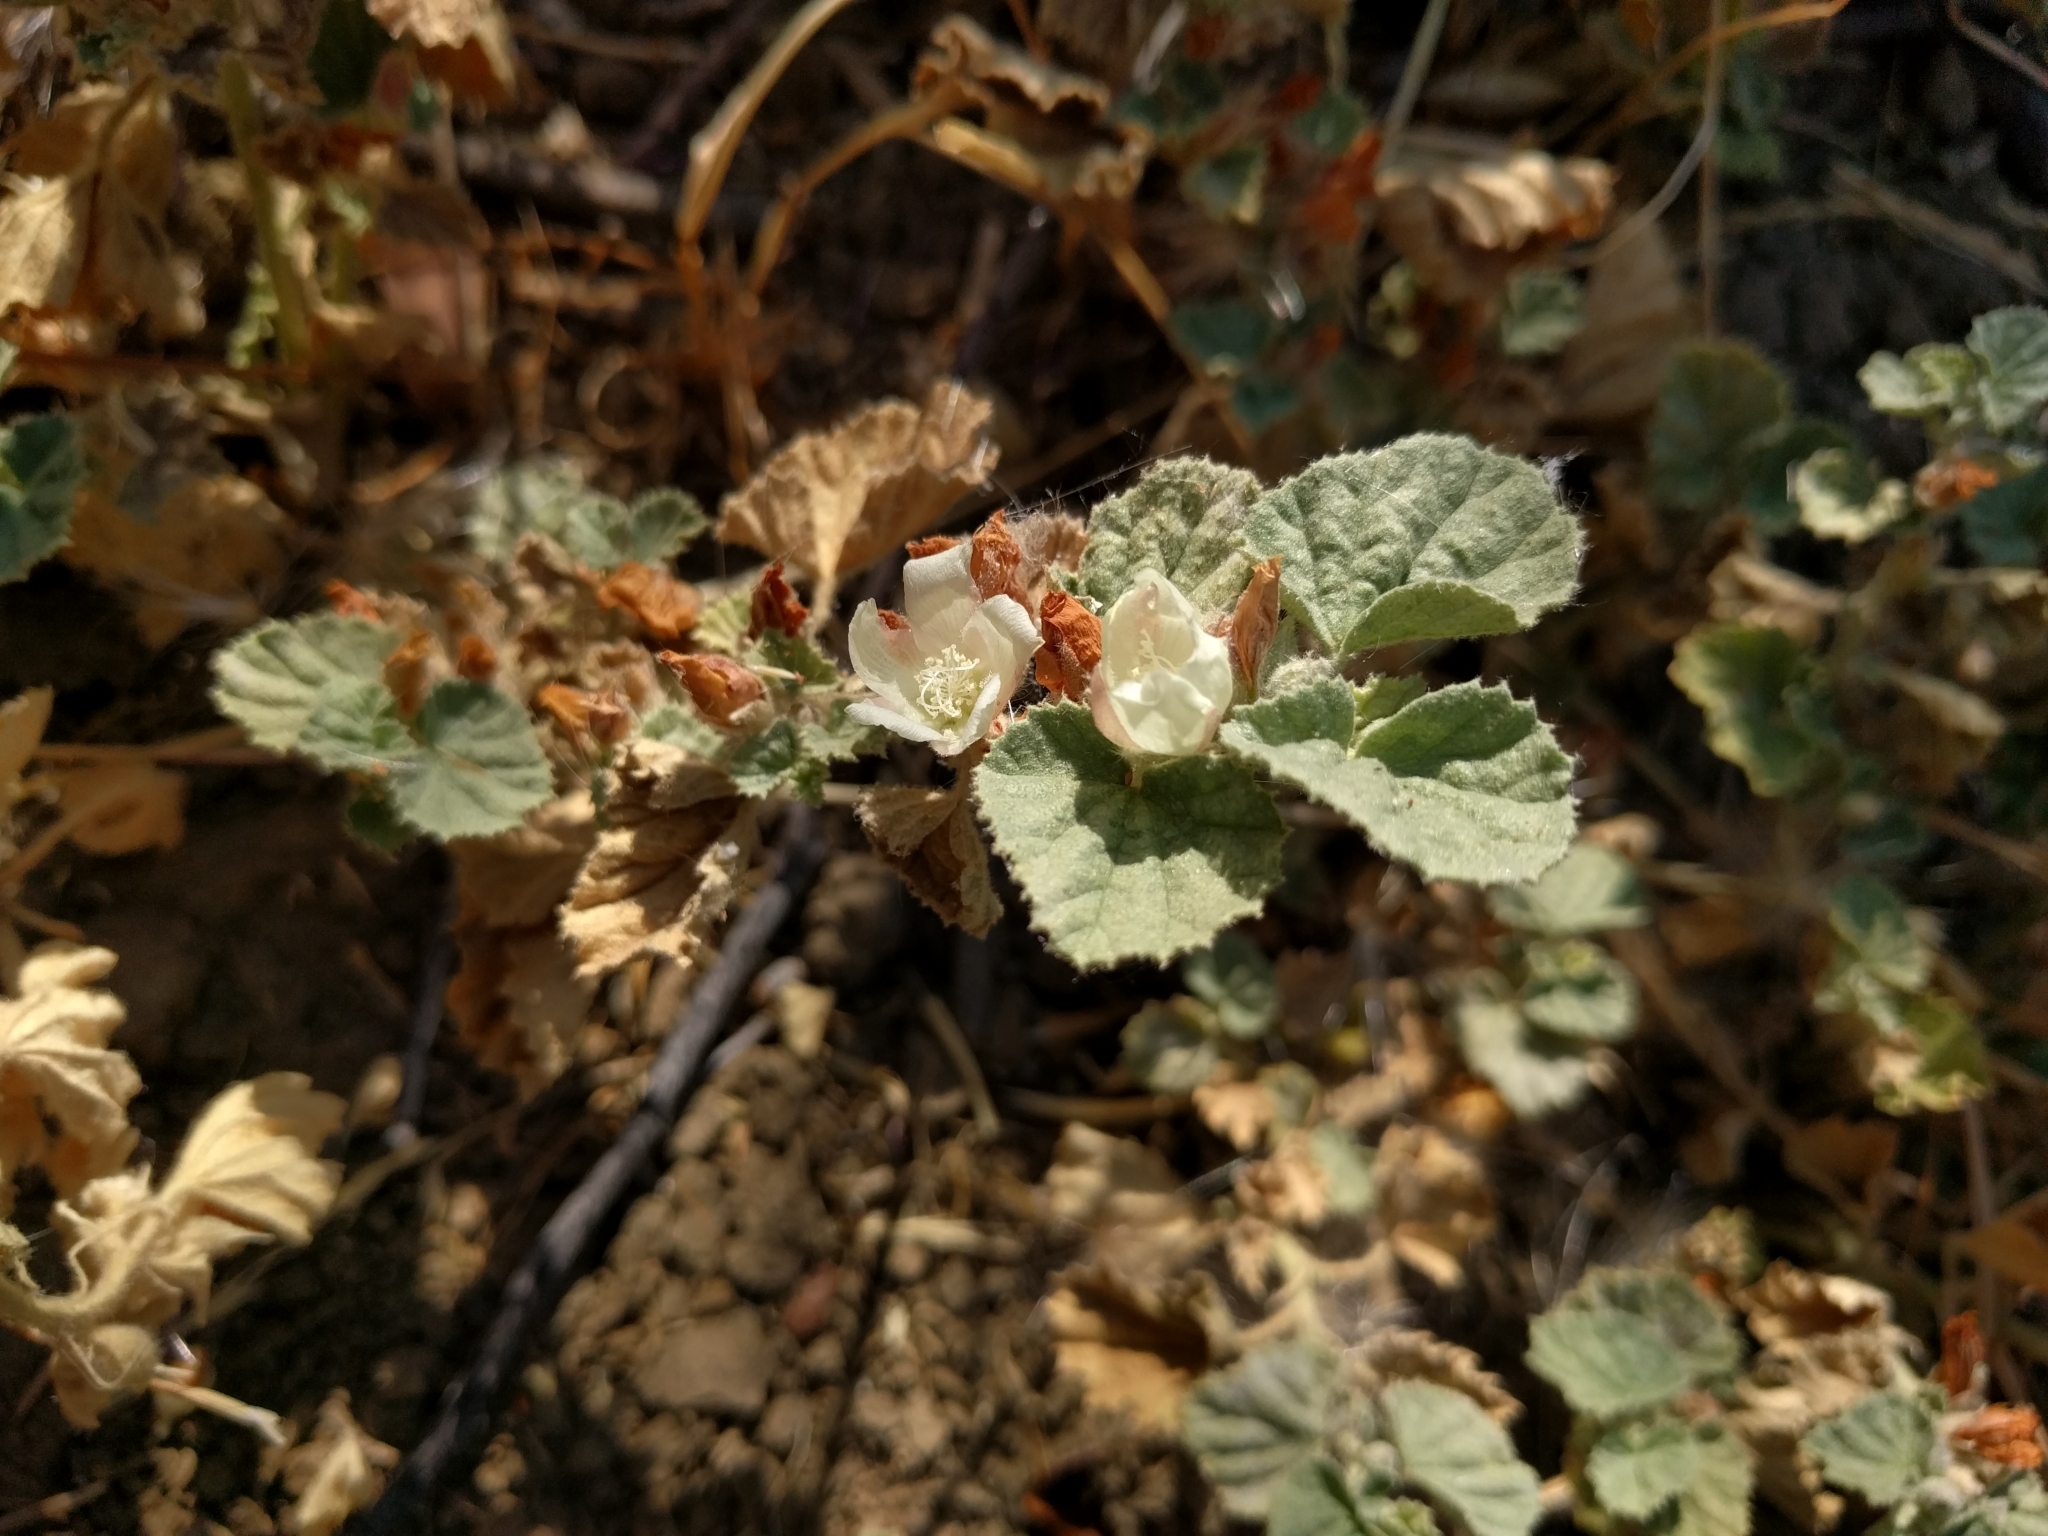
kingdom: Plantae
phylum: Tracheophyta
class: Magnoliopsida
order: Malvales
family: Malvaceae
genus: Malvella
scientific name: Malvella leprosa
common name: Alkali-mallow
